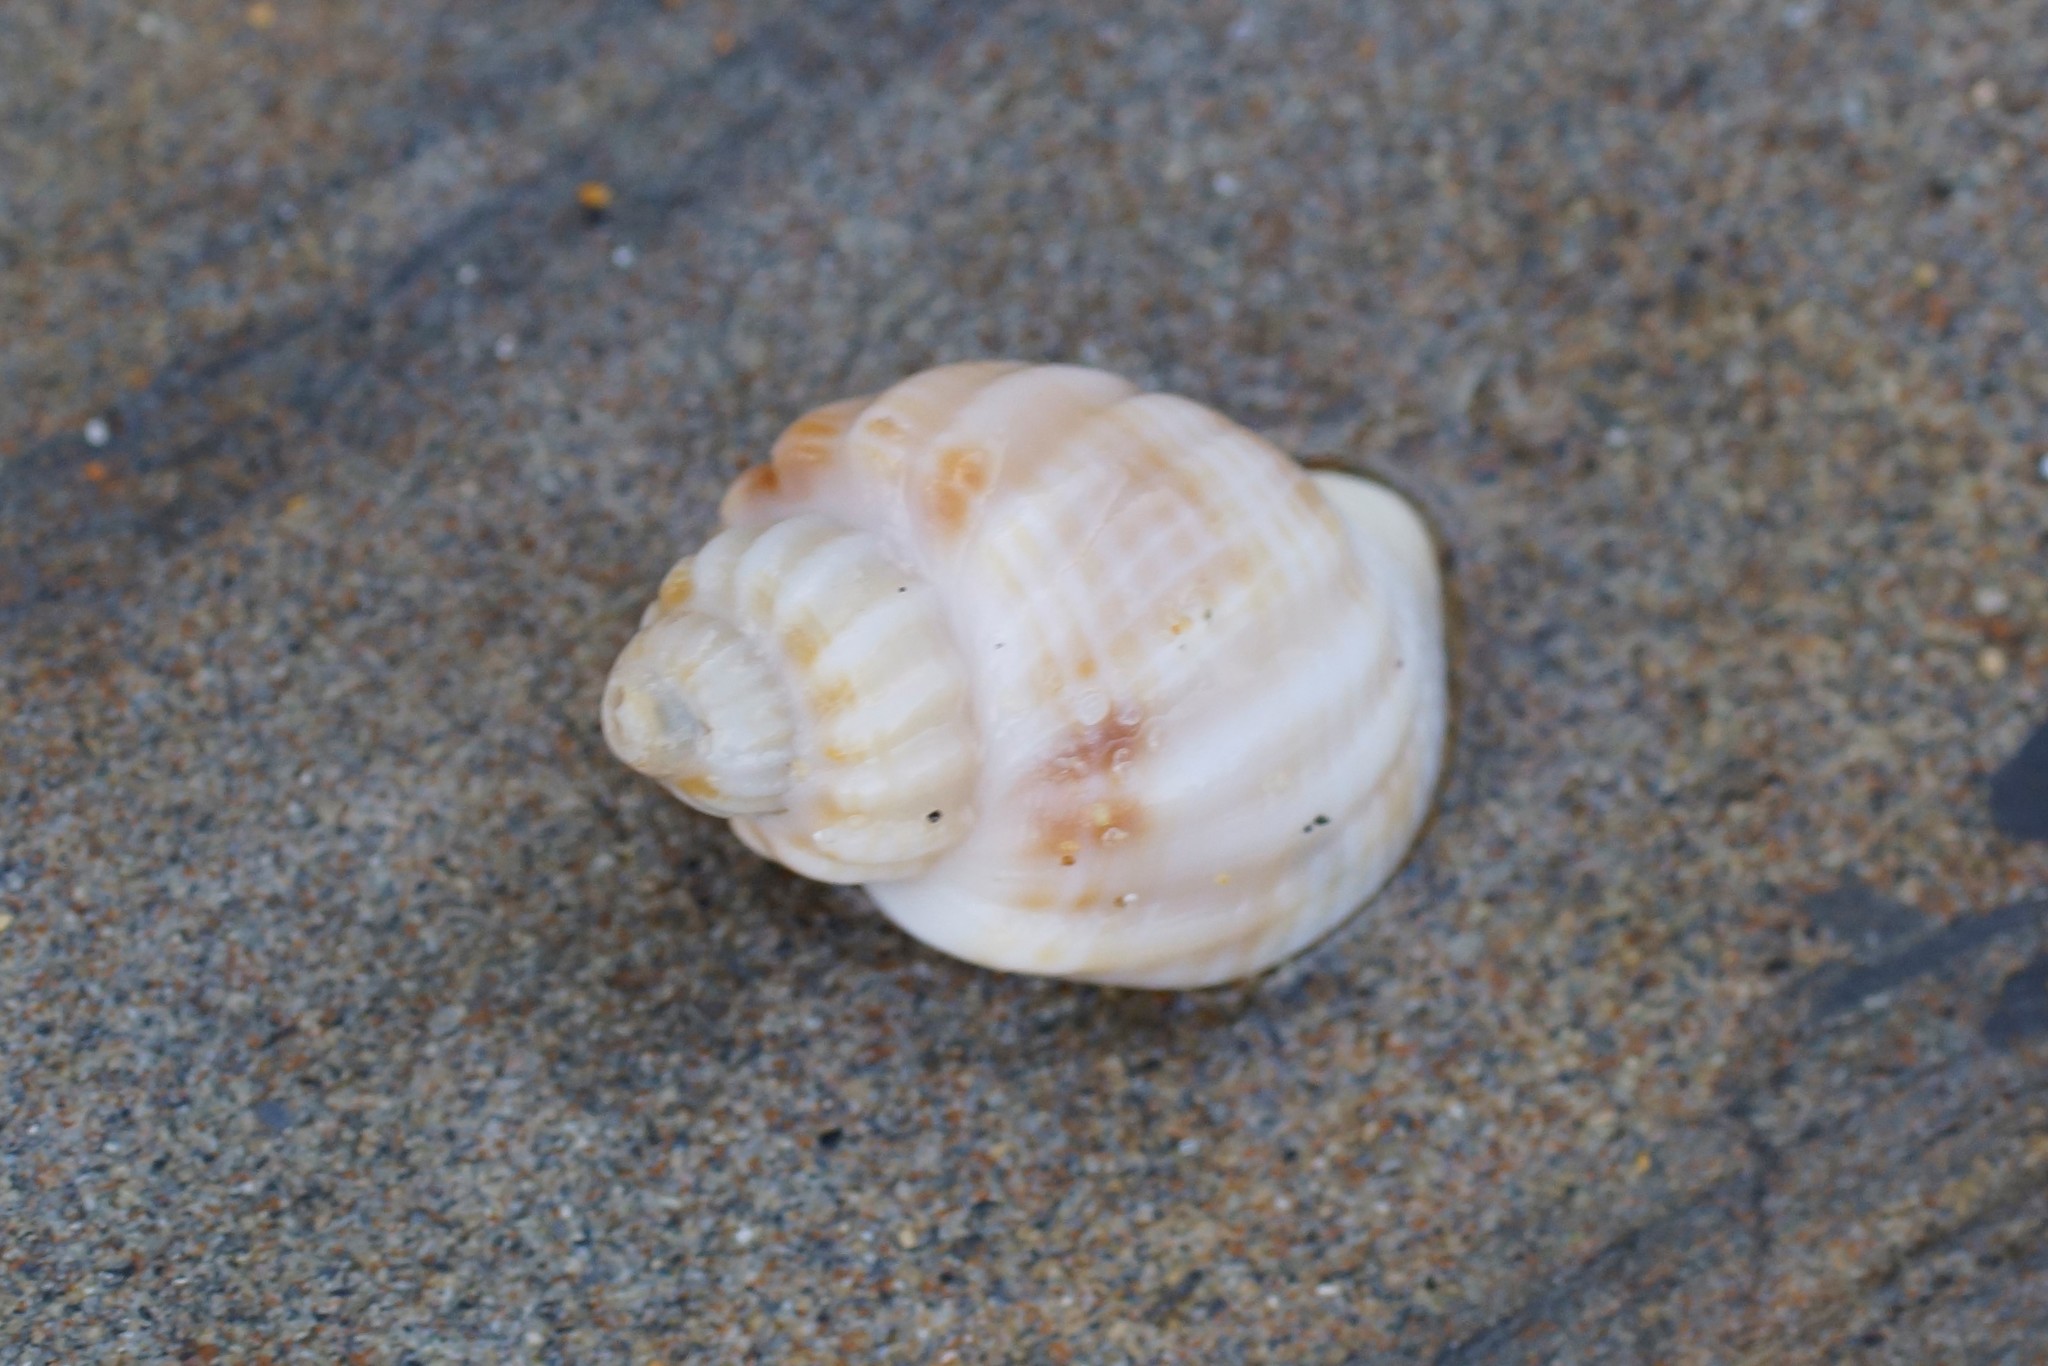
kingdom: Animalia
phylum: Mollusca
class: Gastropoda
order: Neogastropoda
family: Cancellariidae
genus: Merica
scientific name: Merica undulata
